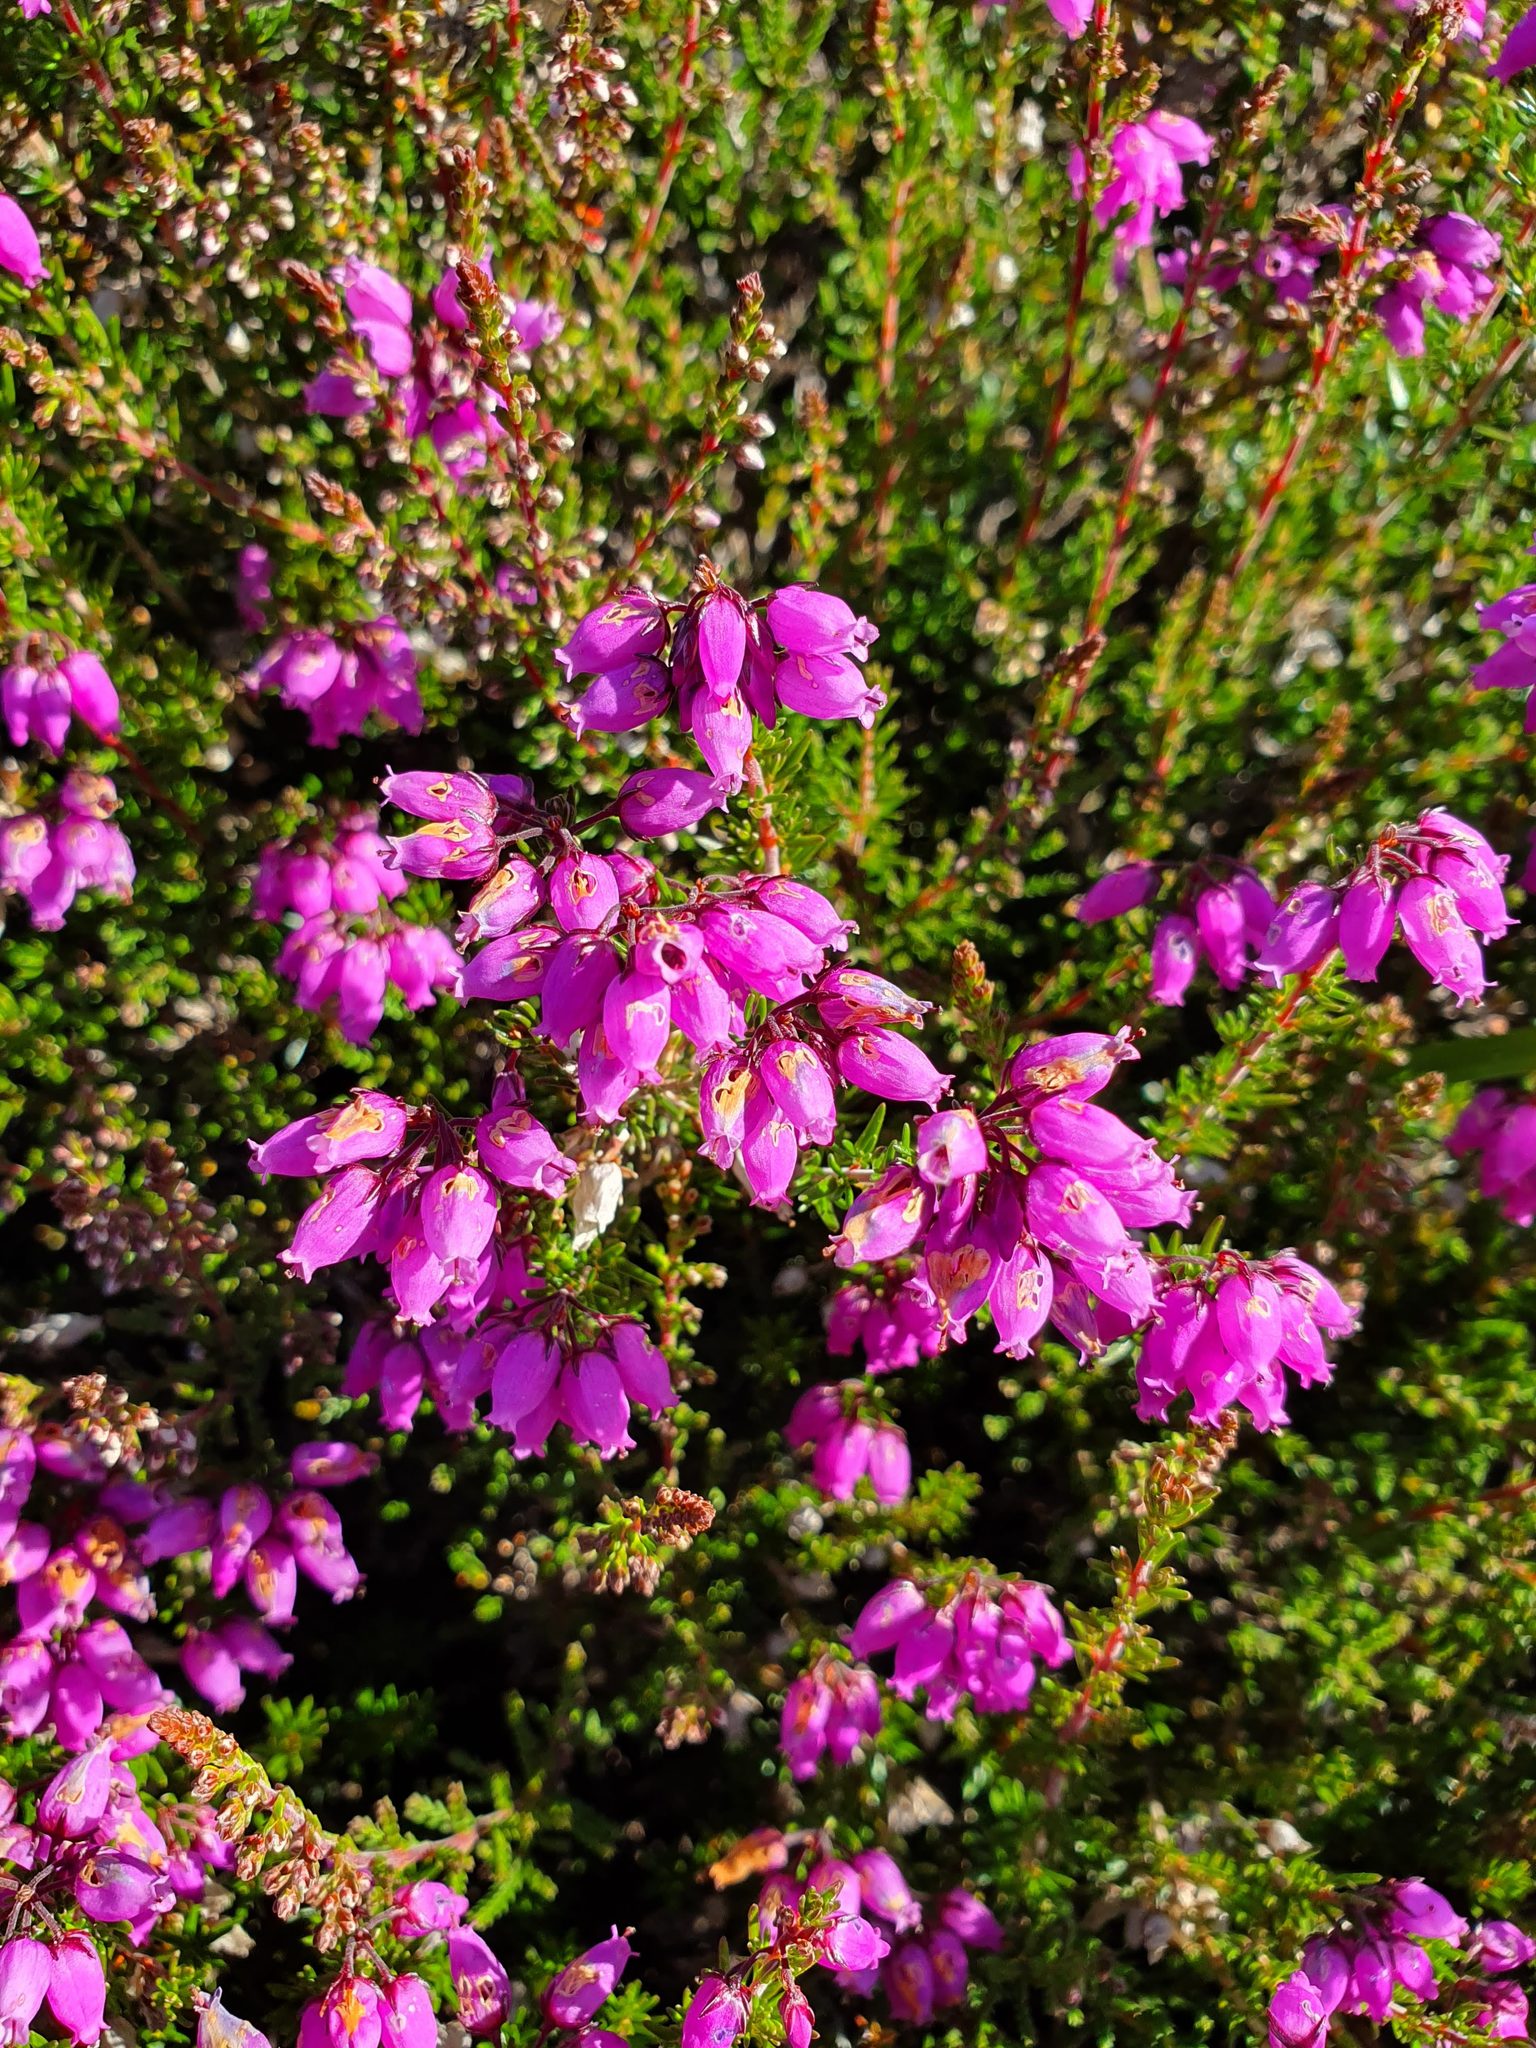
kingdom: Plantae
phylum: Tracheophyta
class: Magnoliopsida
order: Ericales
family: Ericaceae
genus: Erica
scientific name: Erica cinerea
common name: Bell heather
